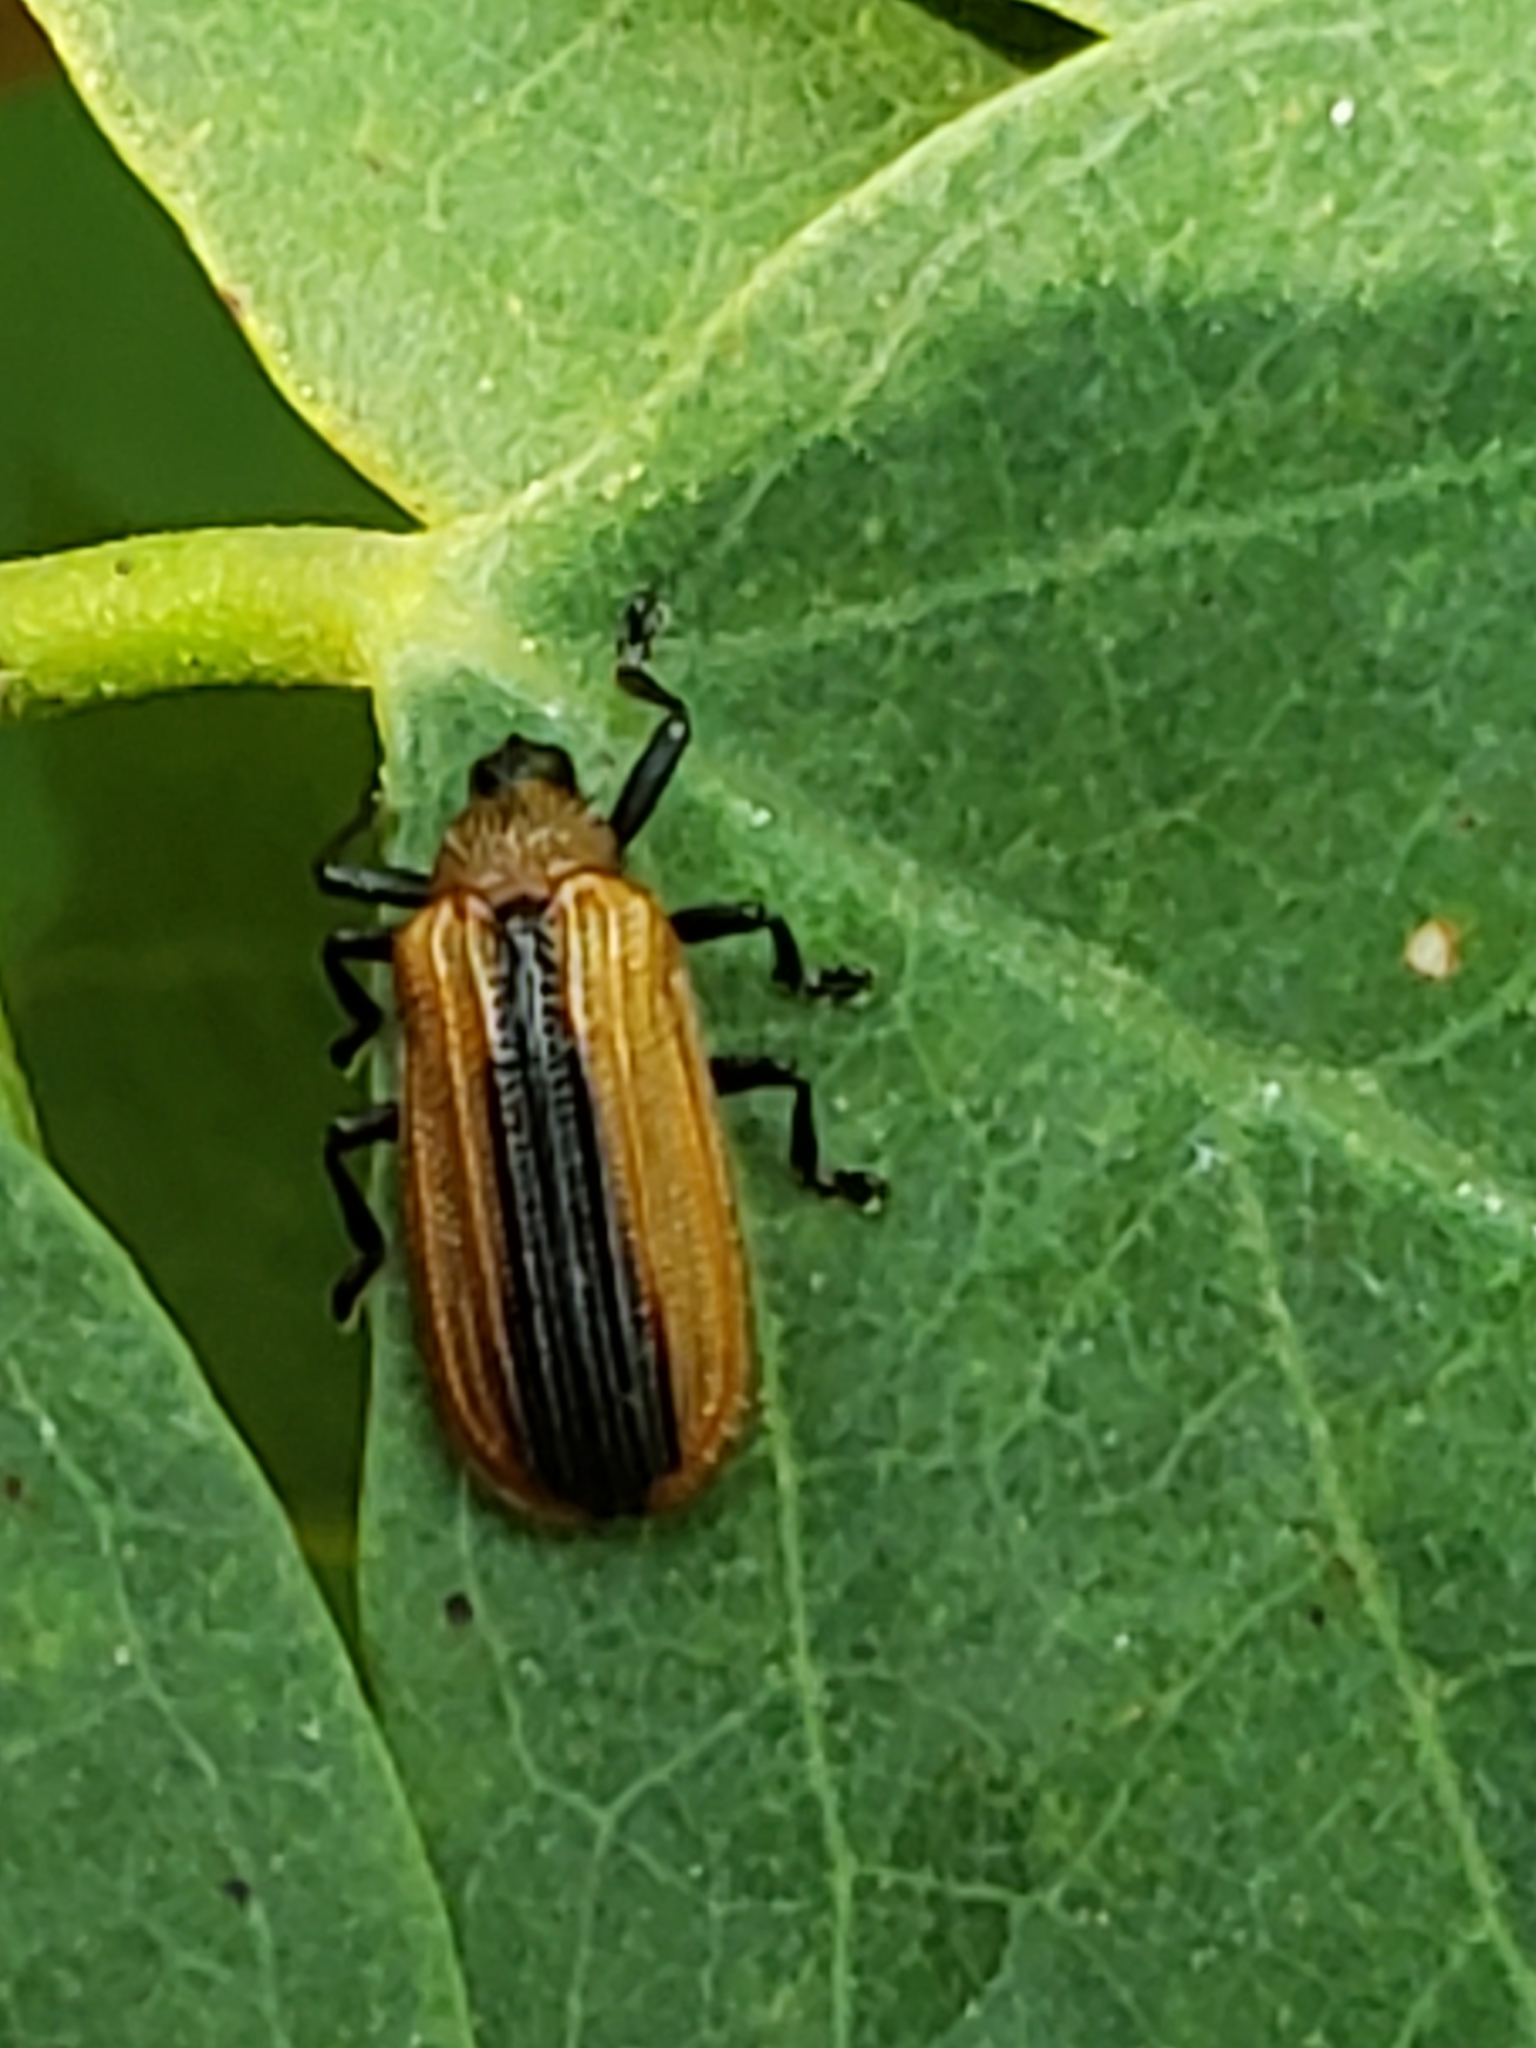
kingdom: Animalia
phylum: Arthropoda
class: Insecta
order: Coleoptera
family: Chrysomelidae
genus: Odontota
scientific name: Odontota dorsalis
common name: Locust leaf-miner beetle
